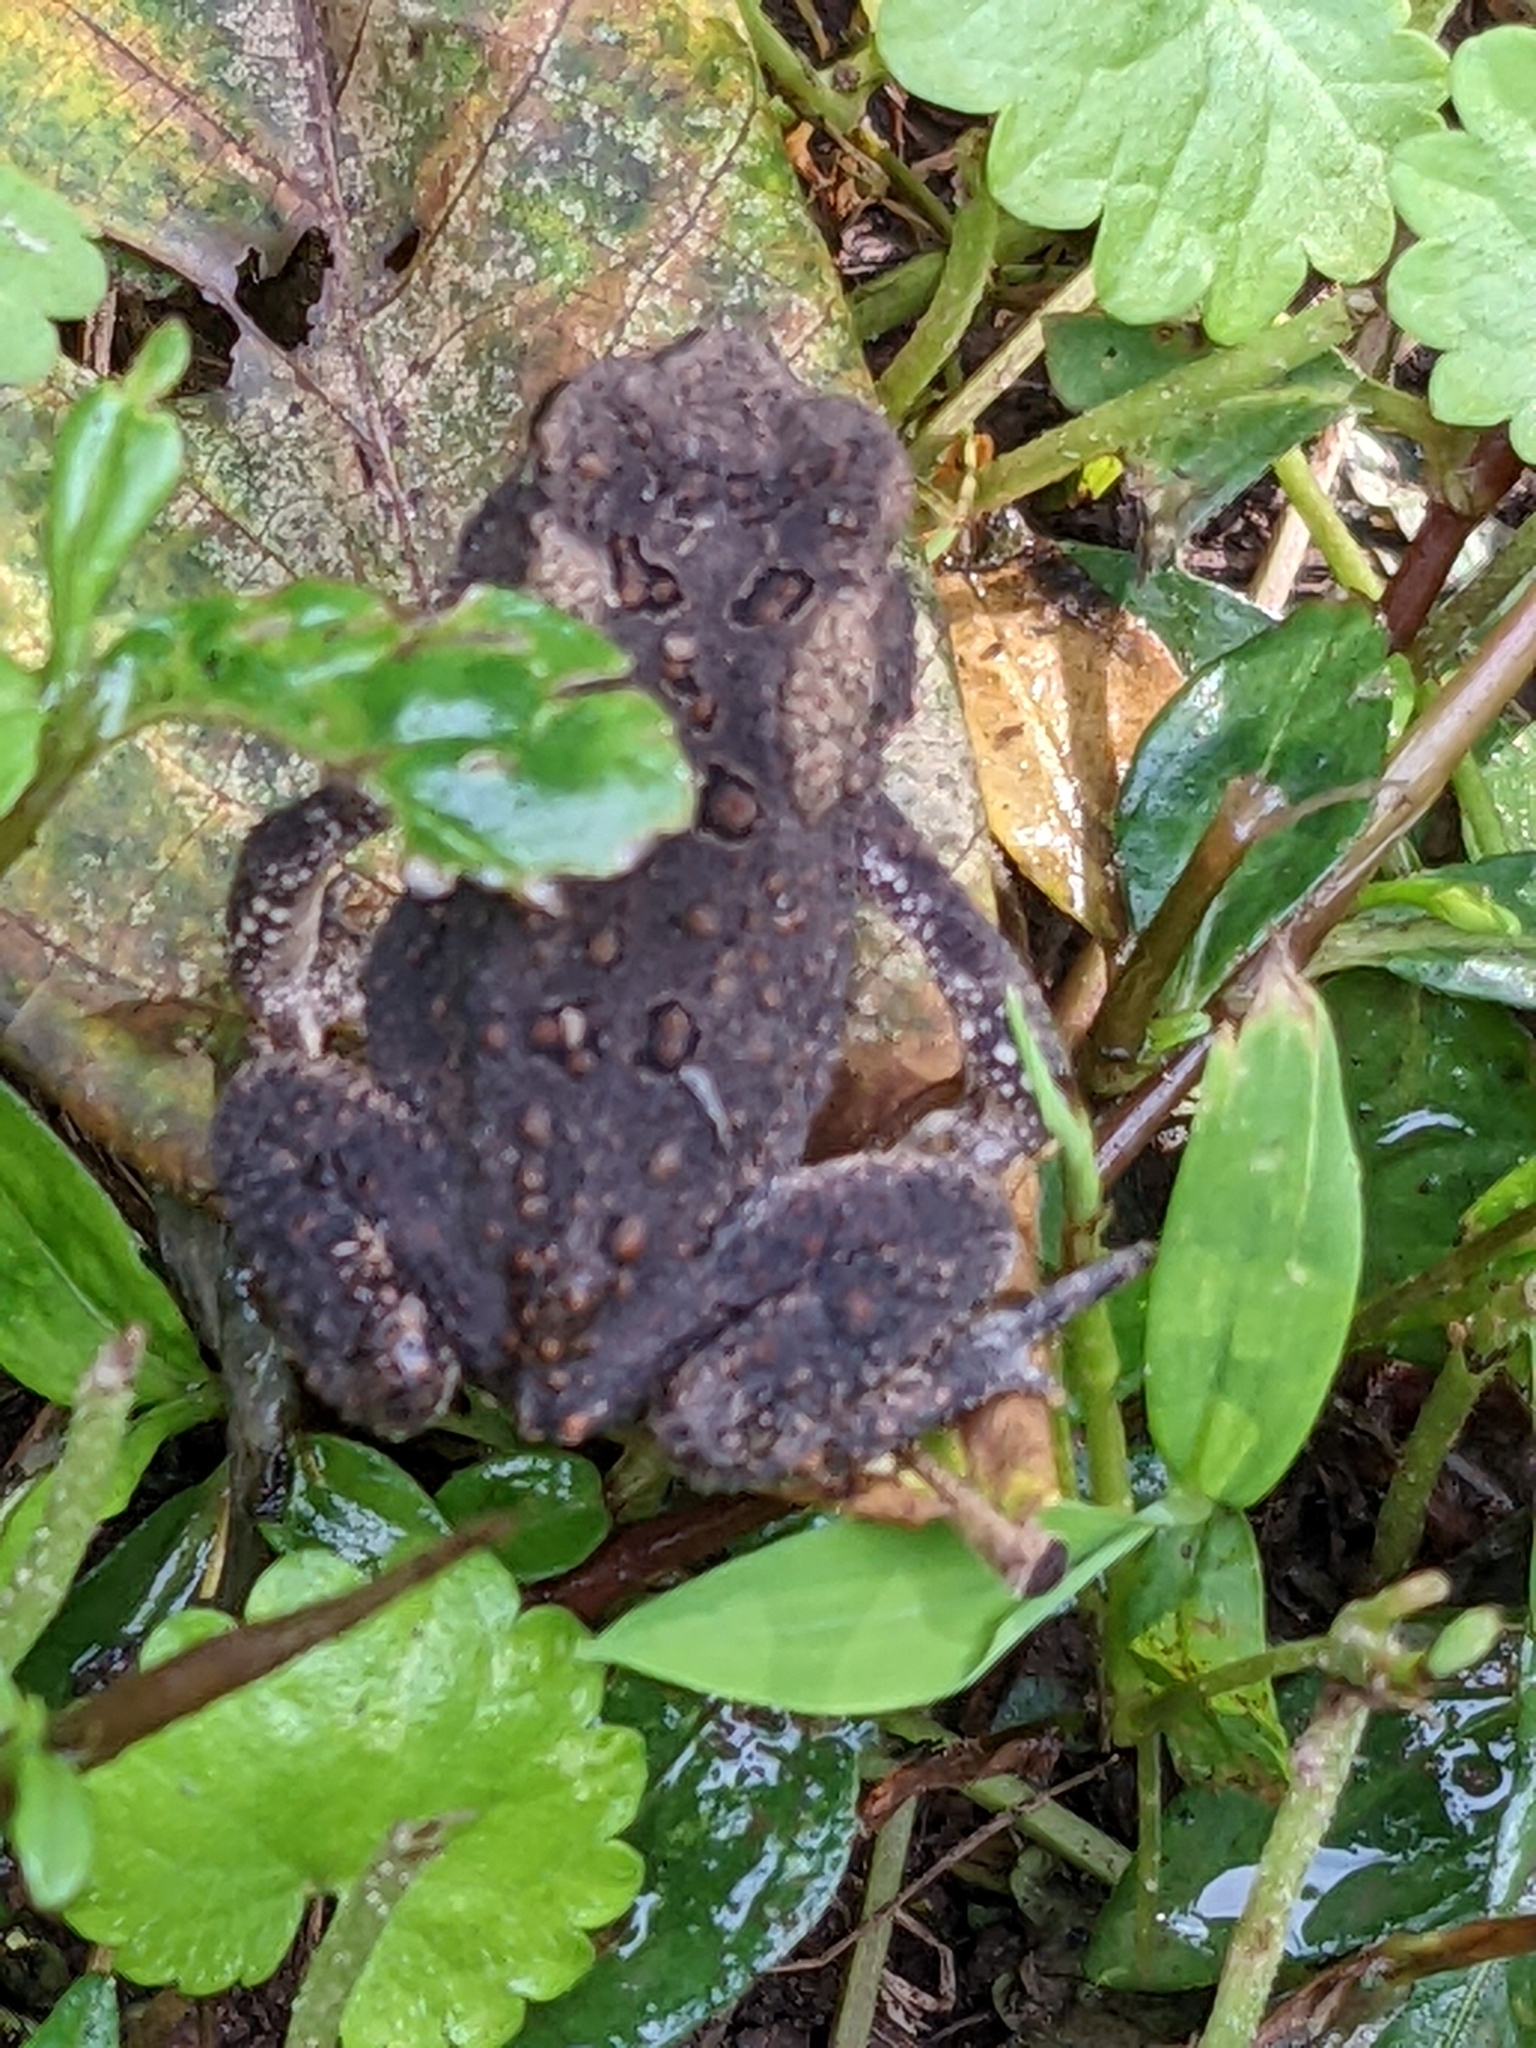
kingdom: Animalia
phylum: Chordata
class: Amphibia
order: Anura
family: Bufonidae
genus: Anaxyrus
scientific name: Anaxyrus americanus
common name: American toad
